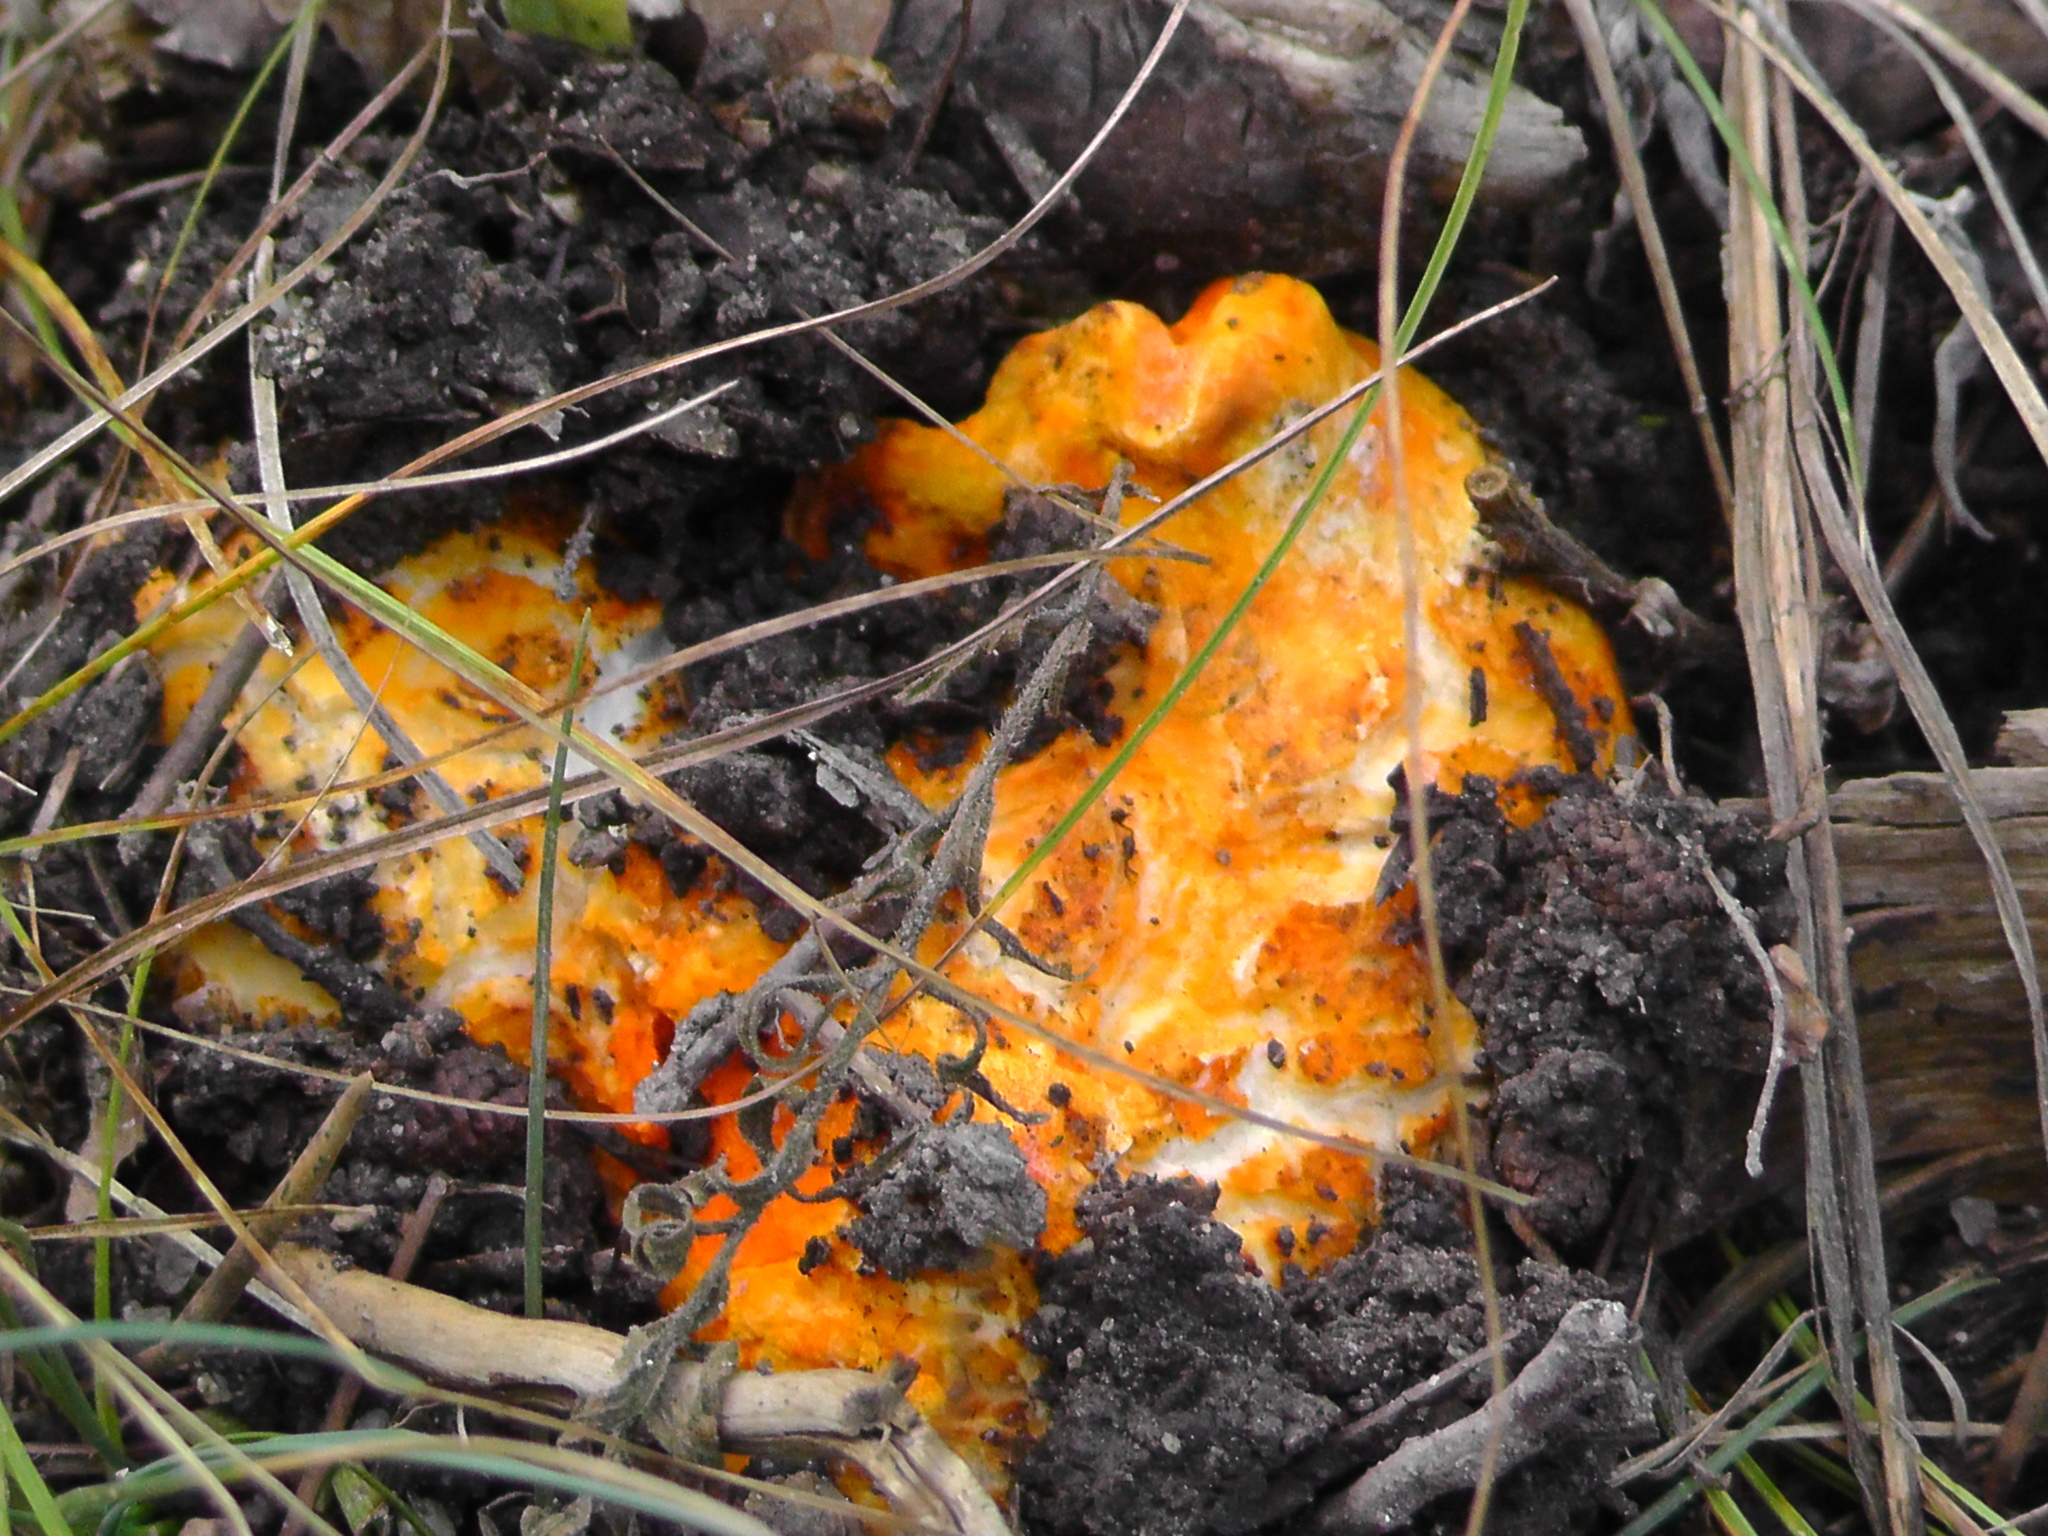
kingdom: Fungi
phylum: Ascomycota
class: Sordariomycetes
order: Hypocreales
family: Hypocreaceae
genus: Hypomyces
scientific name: Hypomyces lactifluorum
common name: Lobster mushroom
